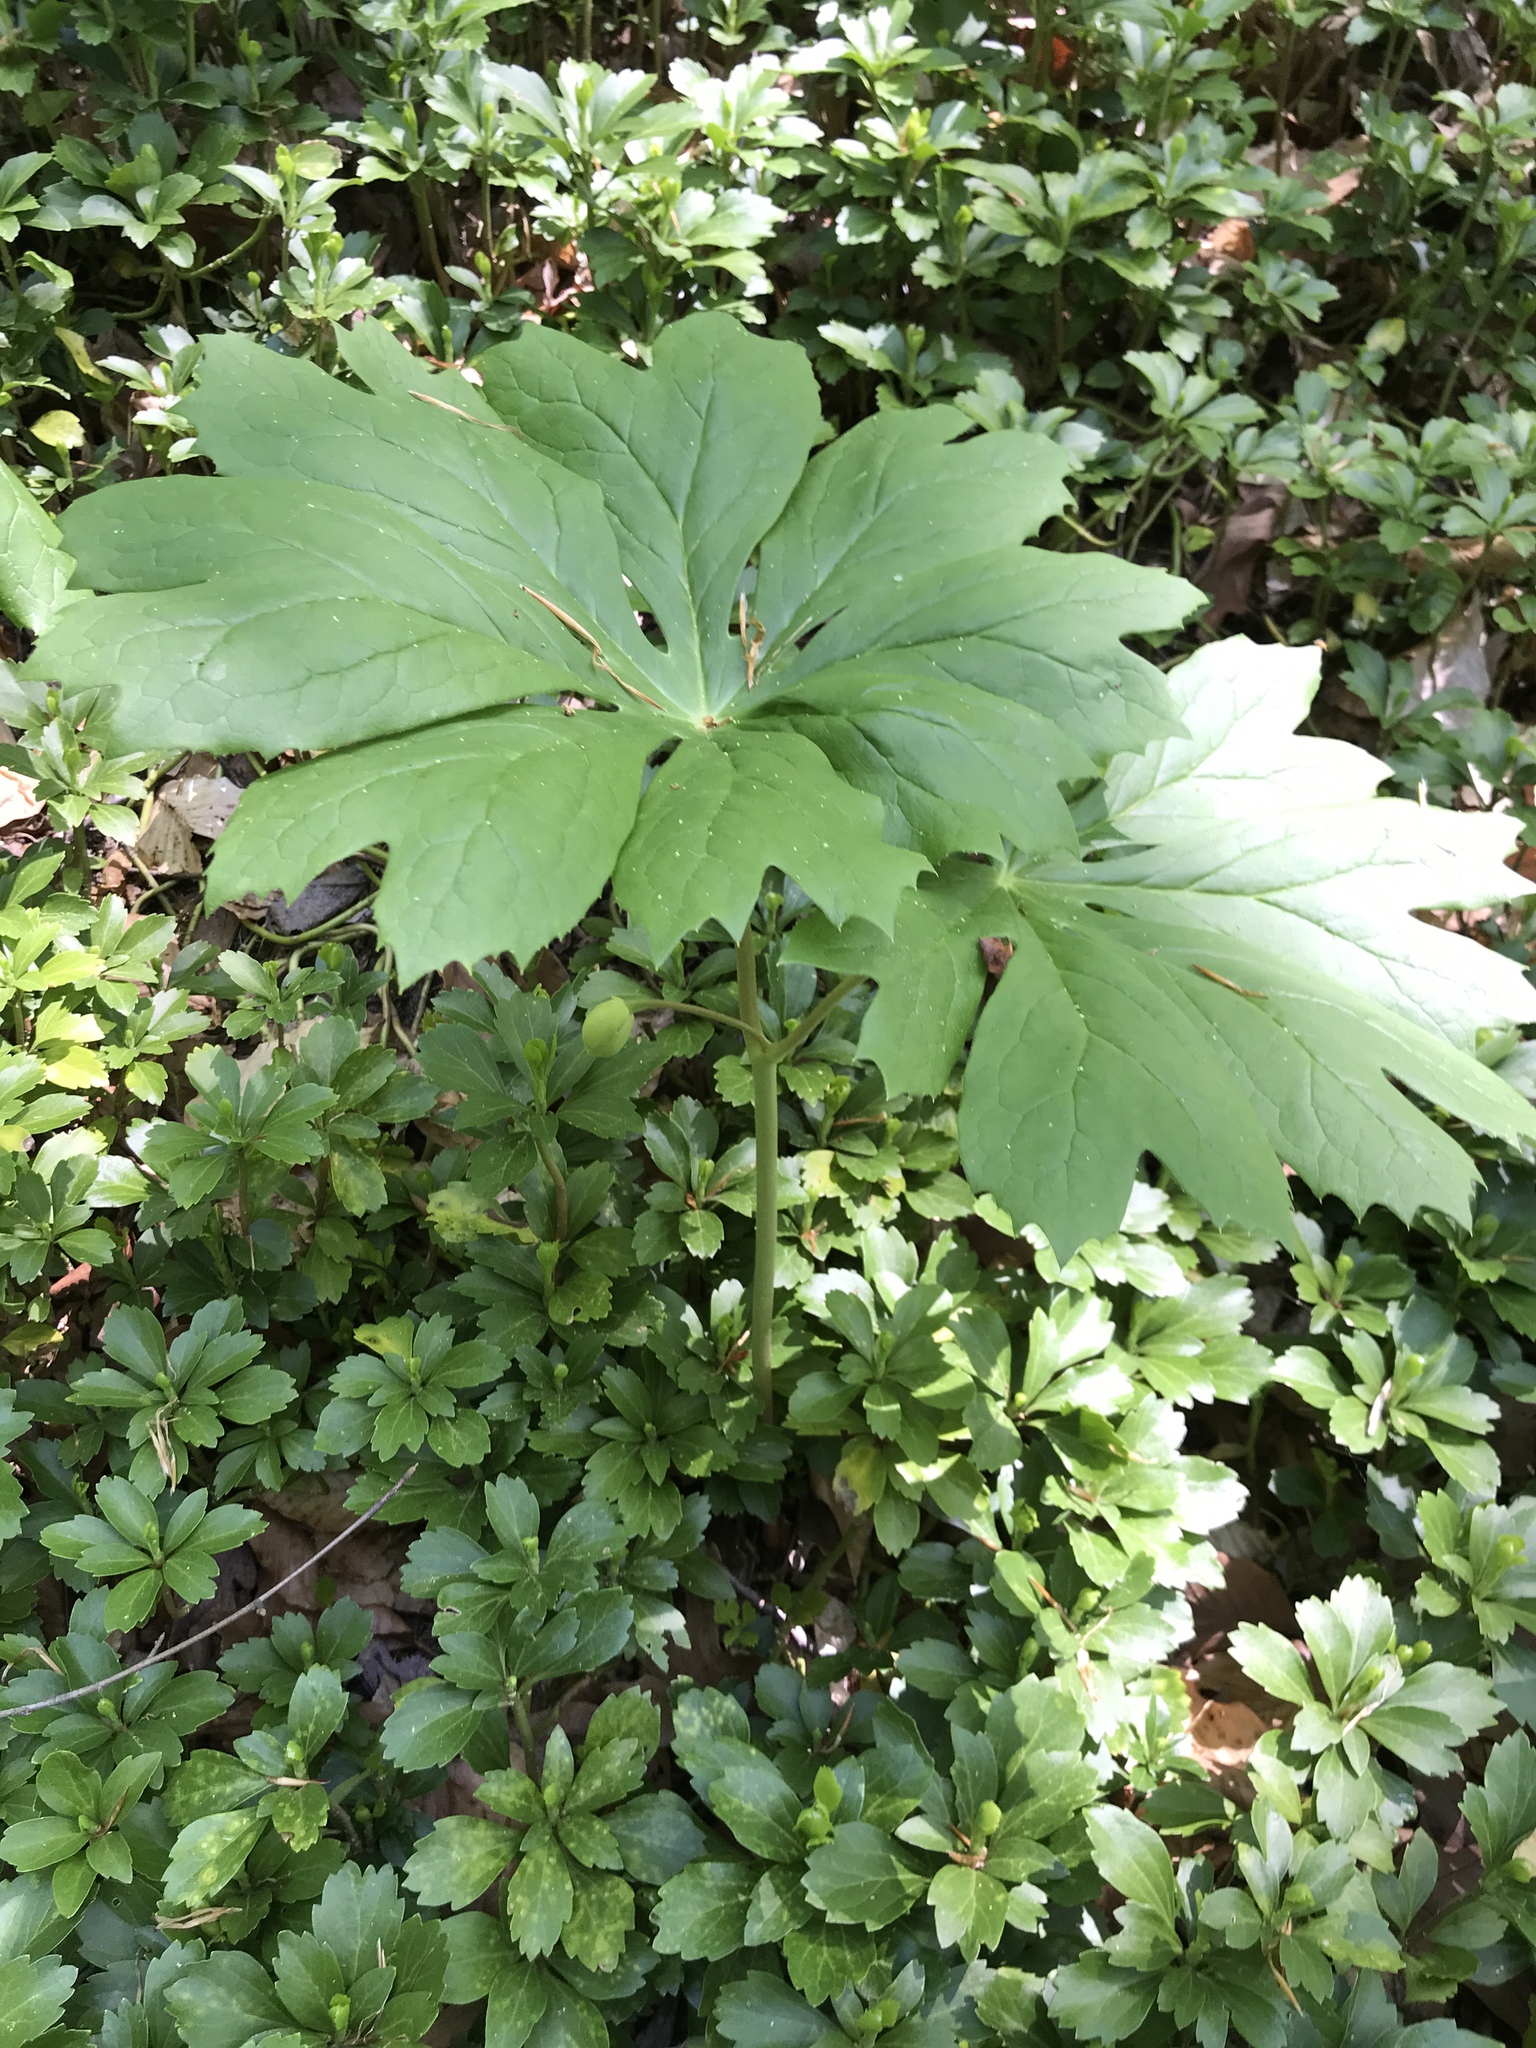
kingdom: Plantae
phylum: Tracheophyta
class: Magnoliopsida
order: Ranunculales
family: Berberidaceae
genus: Podophyllum
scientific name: Podophyllum peltatum
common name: Wild mandrake
